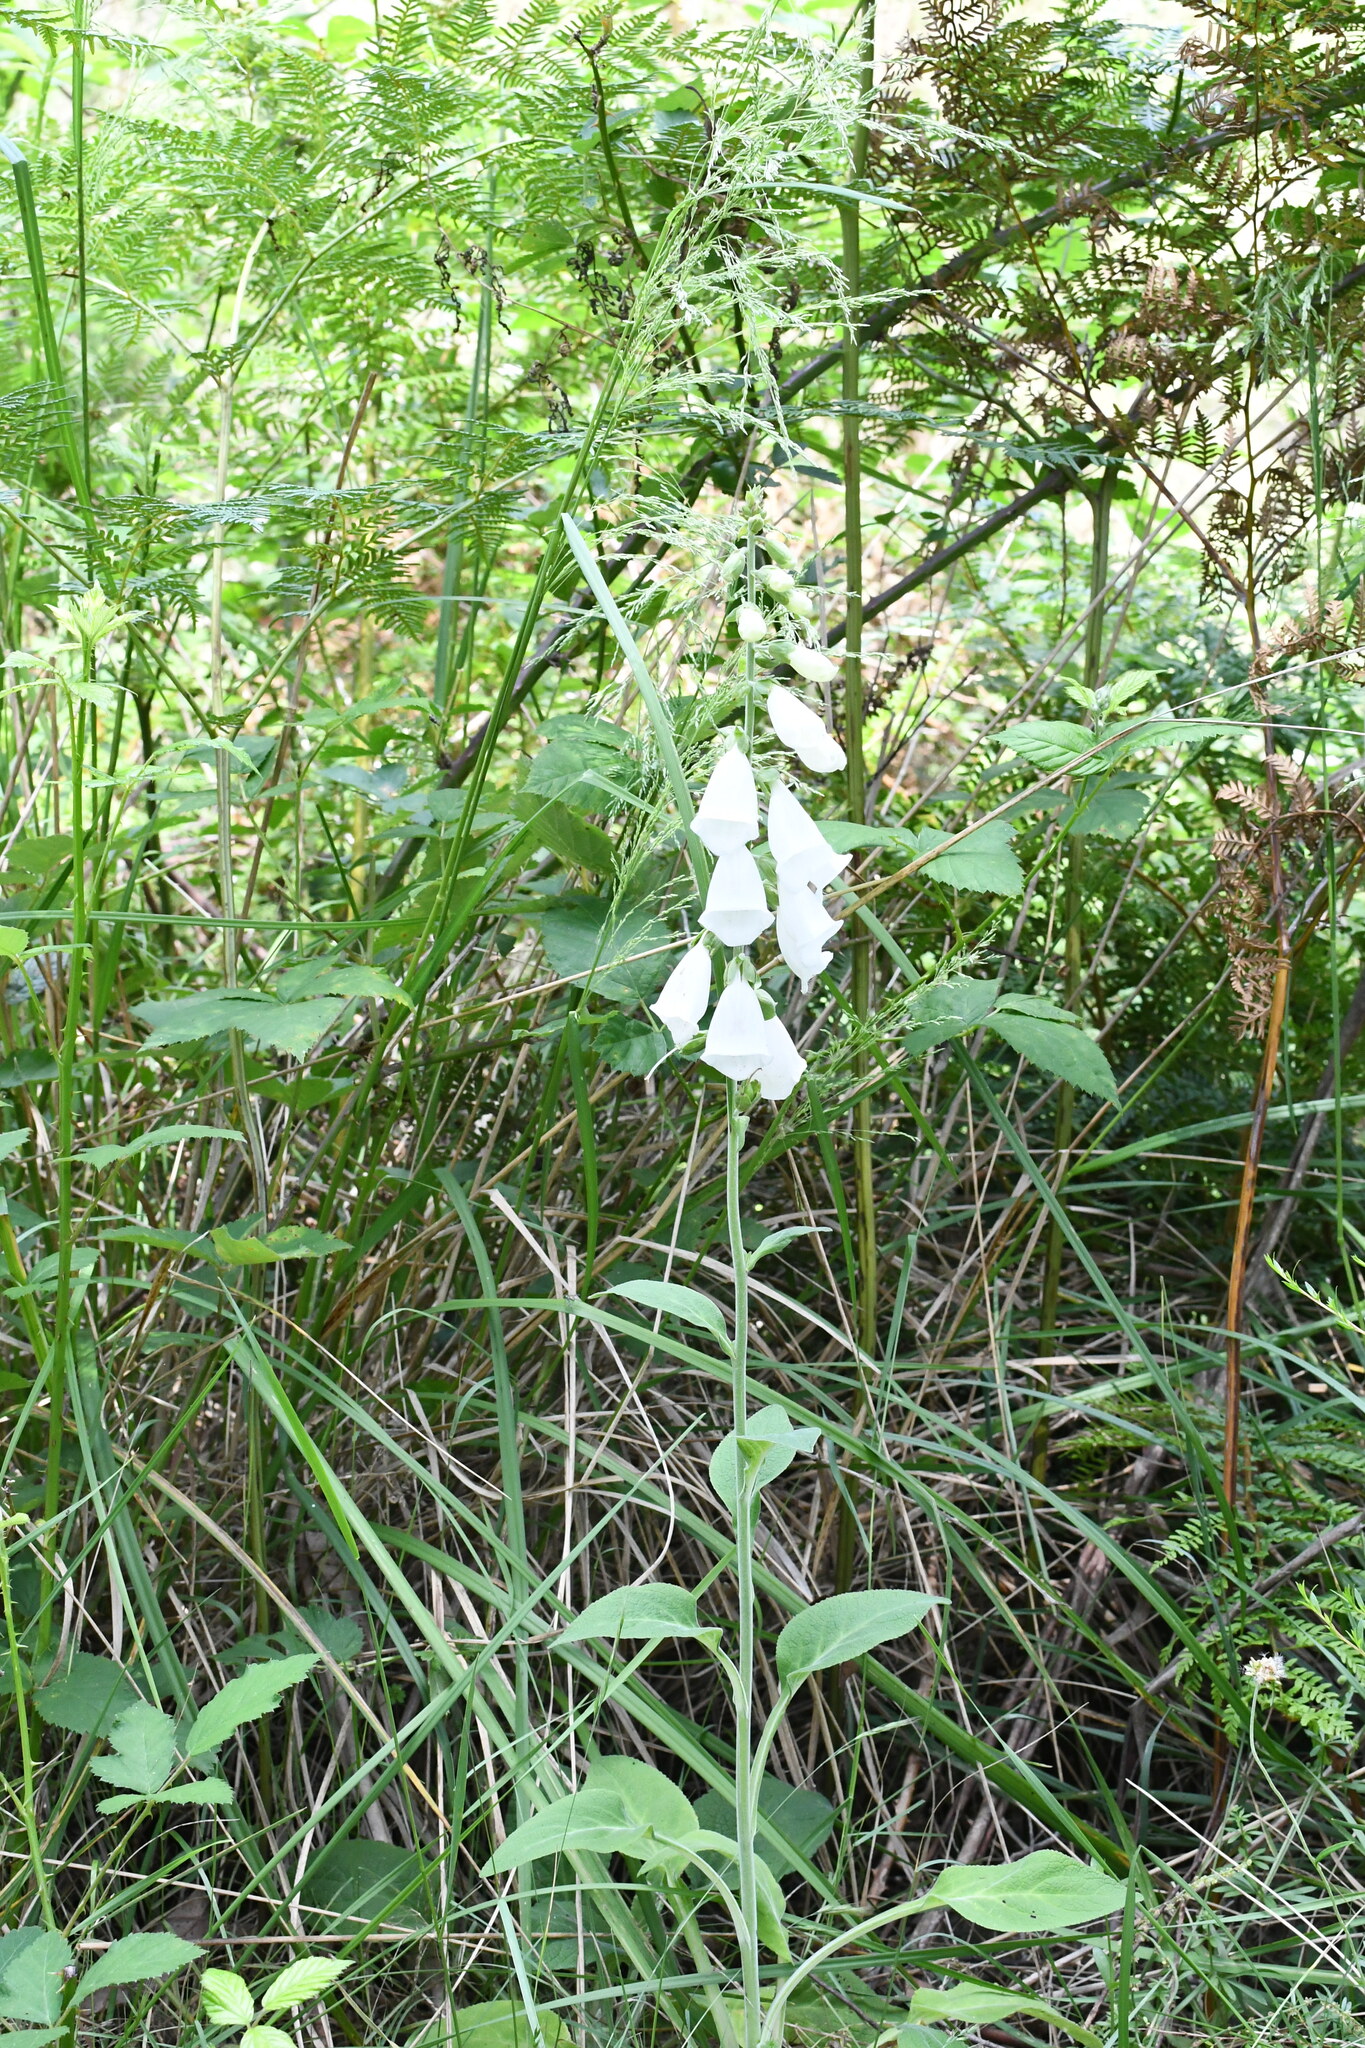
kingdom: Plantae
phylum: Tracheophyta
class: Magnoliopsida
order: Lamiales
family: Plantaginaceae
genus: Digitalis
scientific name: Digitalis purpurea
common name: Foxglove
